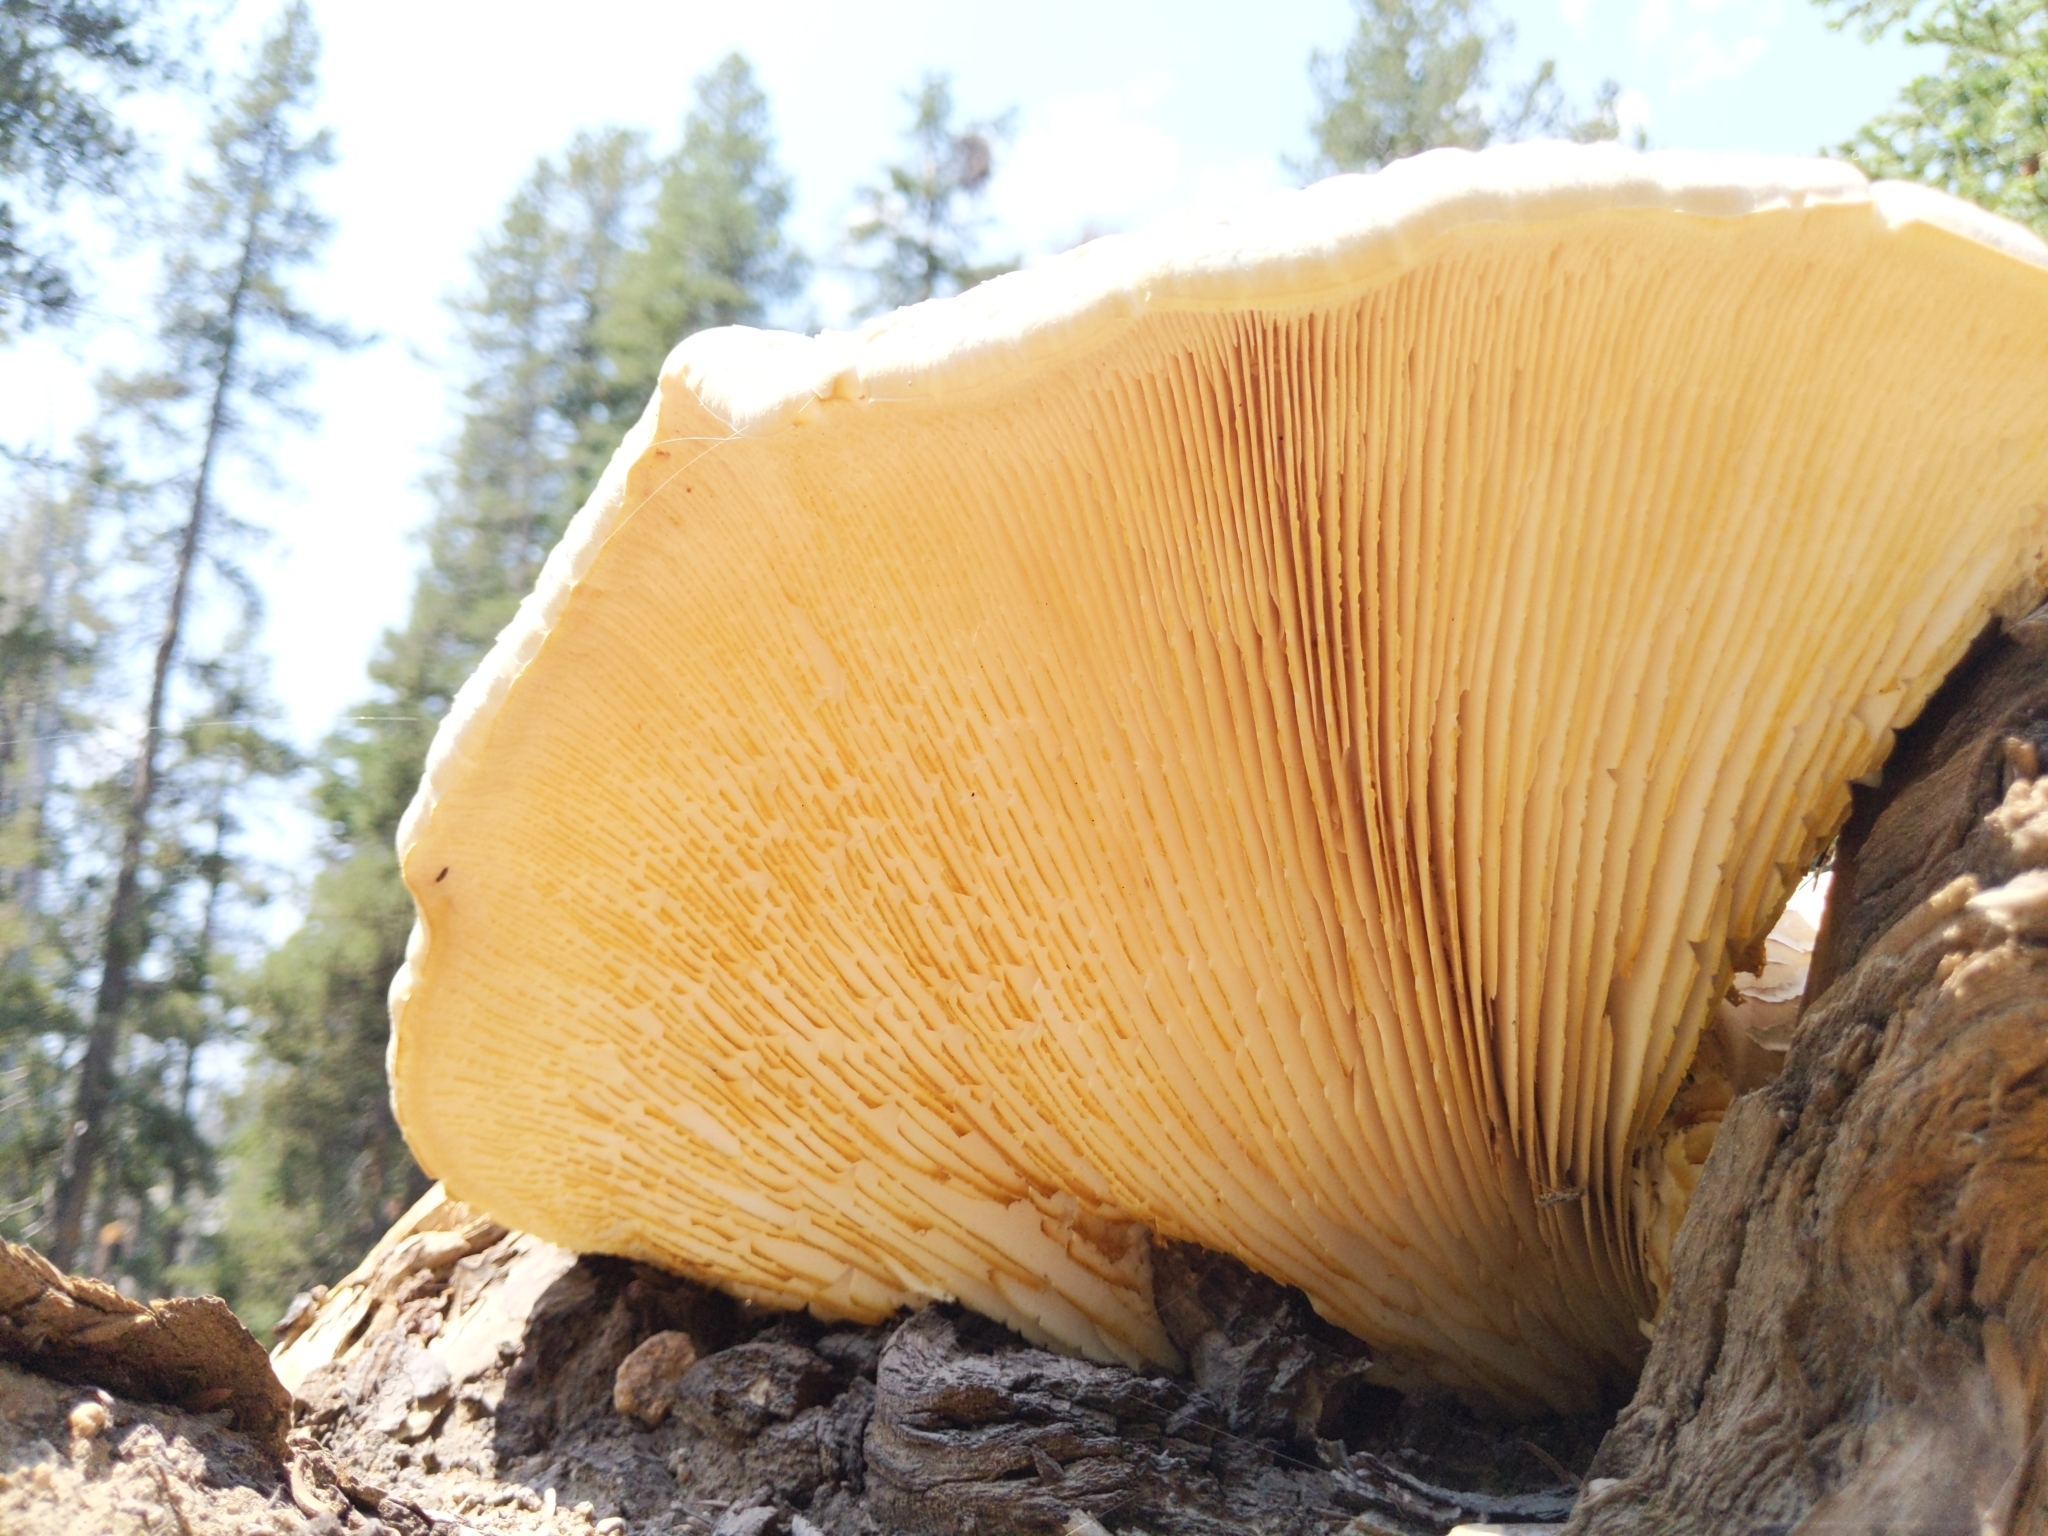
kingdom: Fungi
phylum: Basidiomycota
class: Agaricomycetes
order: Gloeophyllales
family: Gloeophyllaceae
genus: Neolentinus
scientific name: Neolentinus ponderosus
